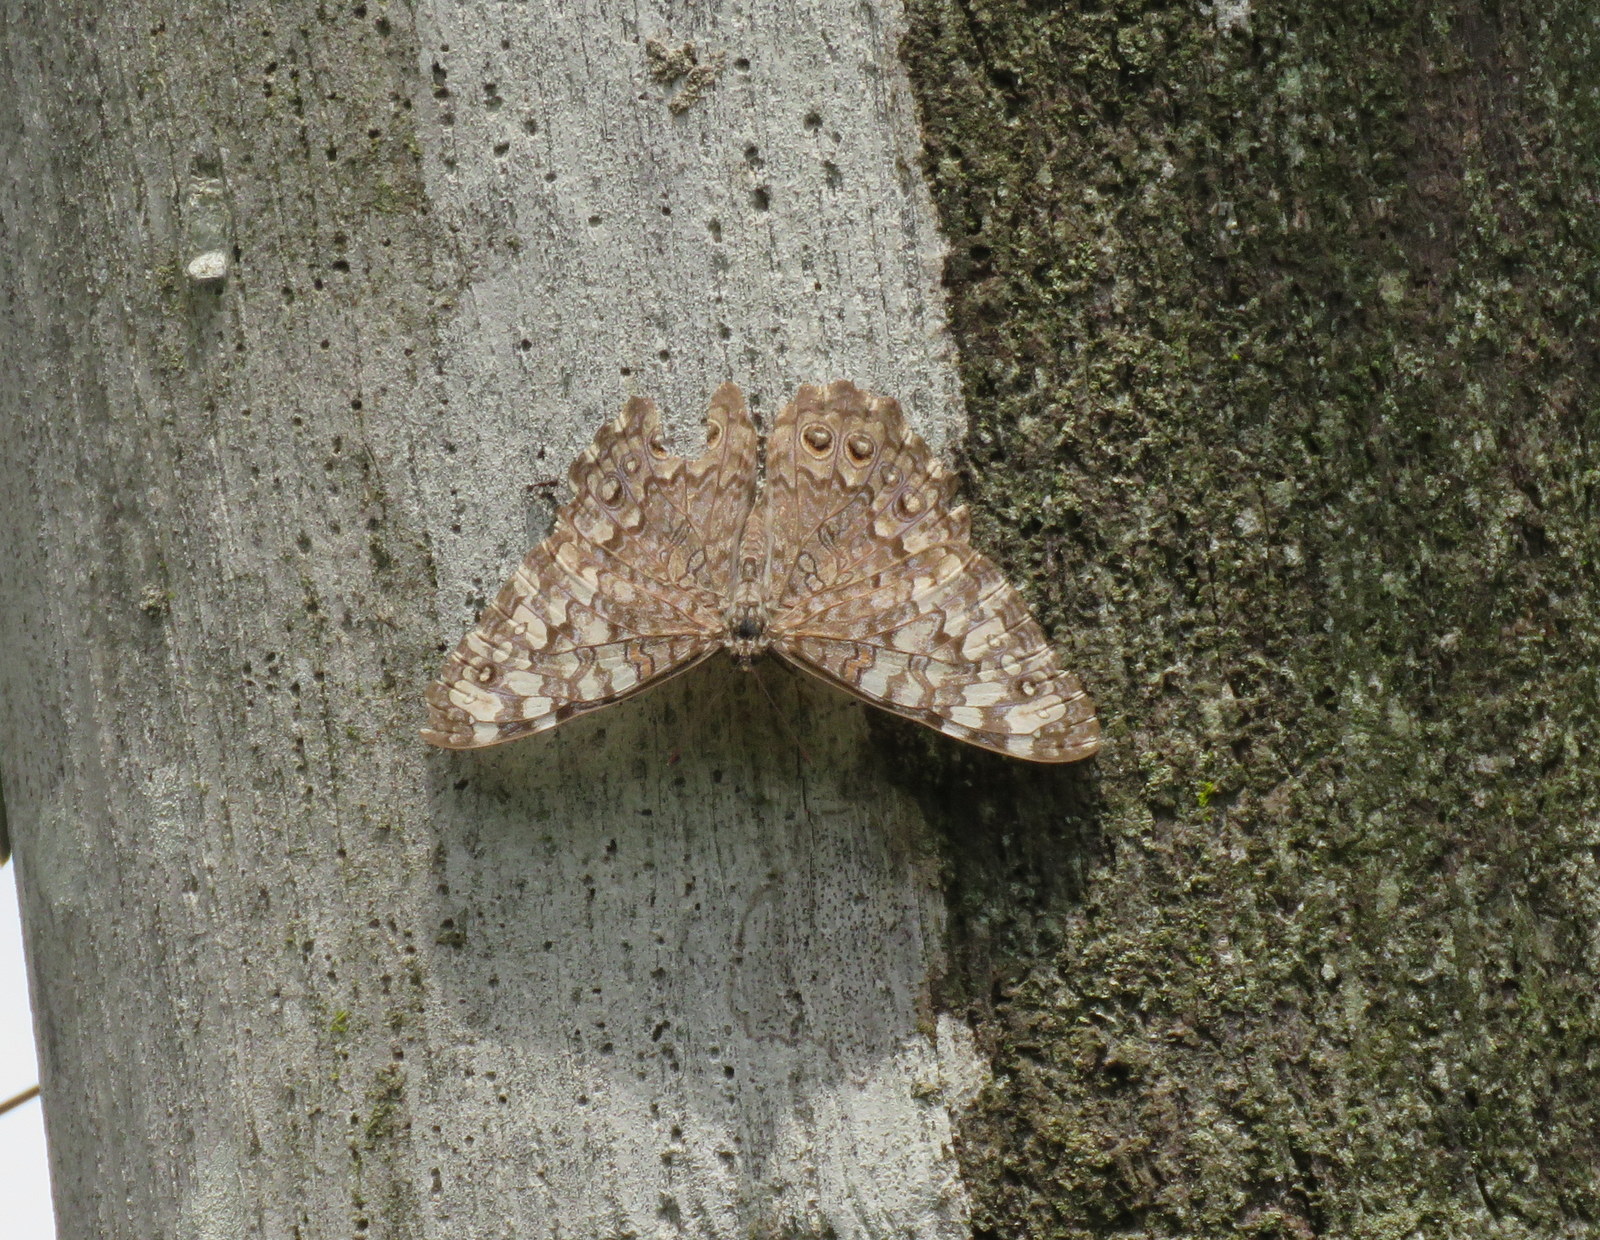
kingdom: Animalia
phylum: Arthropoda
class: Insecta
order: Lepidoptera
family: Nymphalidae
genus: Hamadryas
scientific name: Hamadryas februa
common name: Gray cracker
